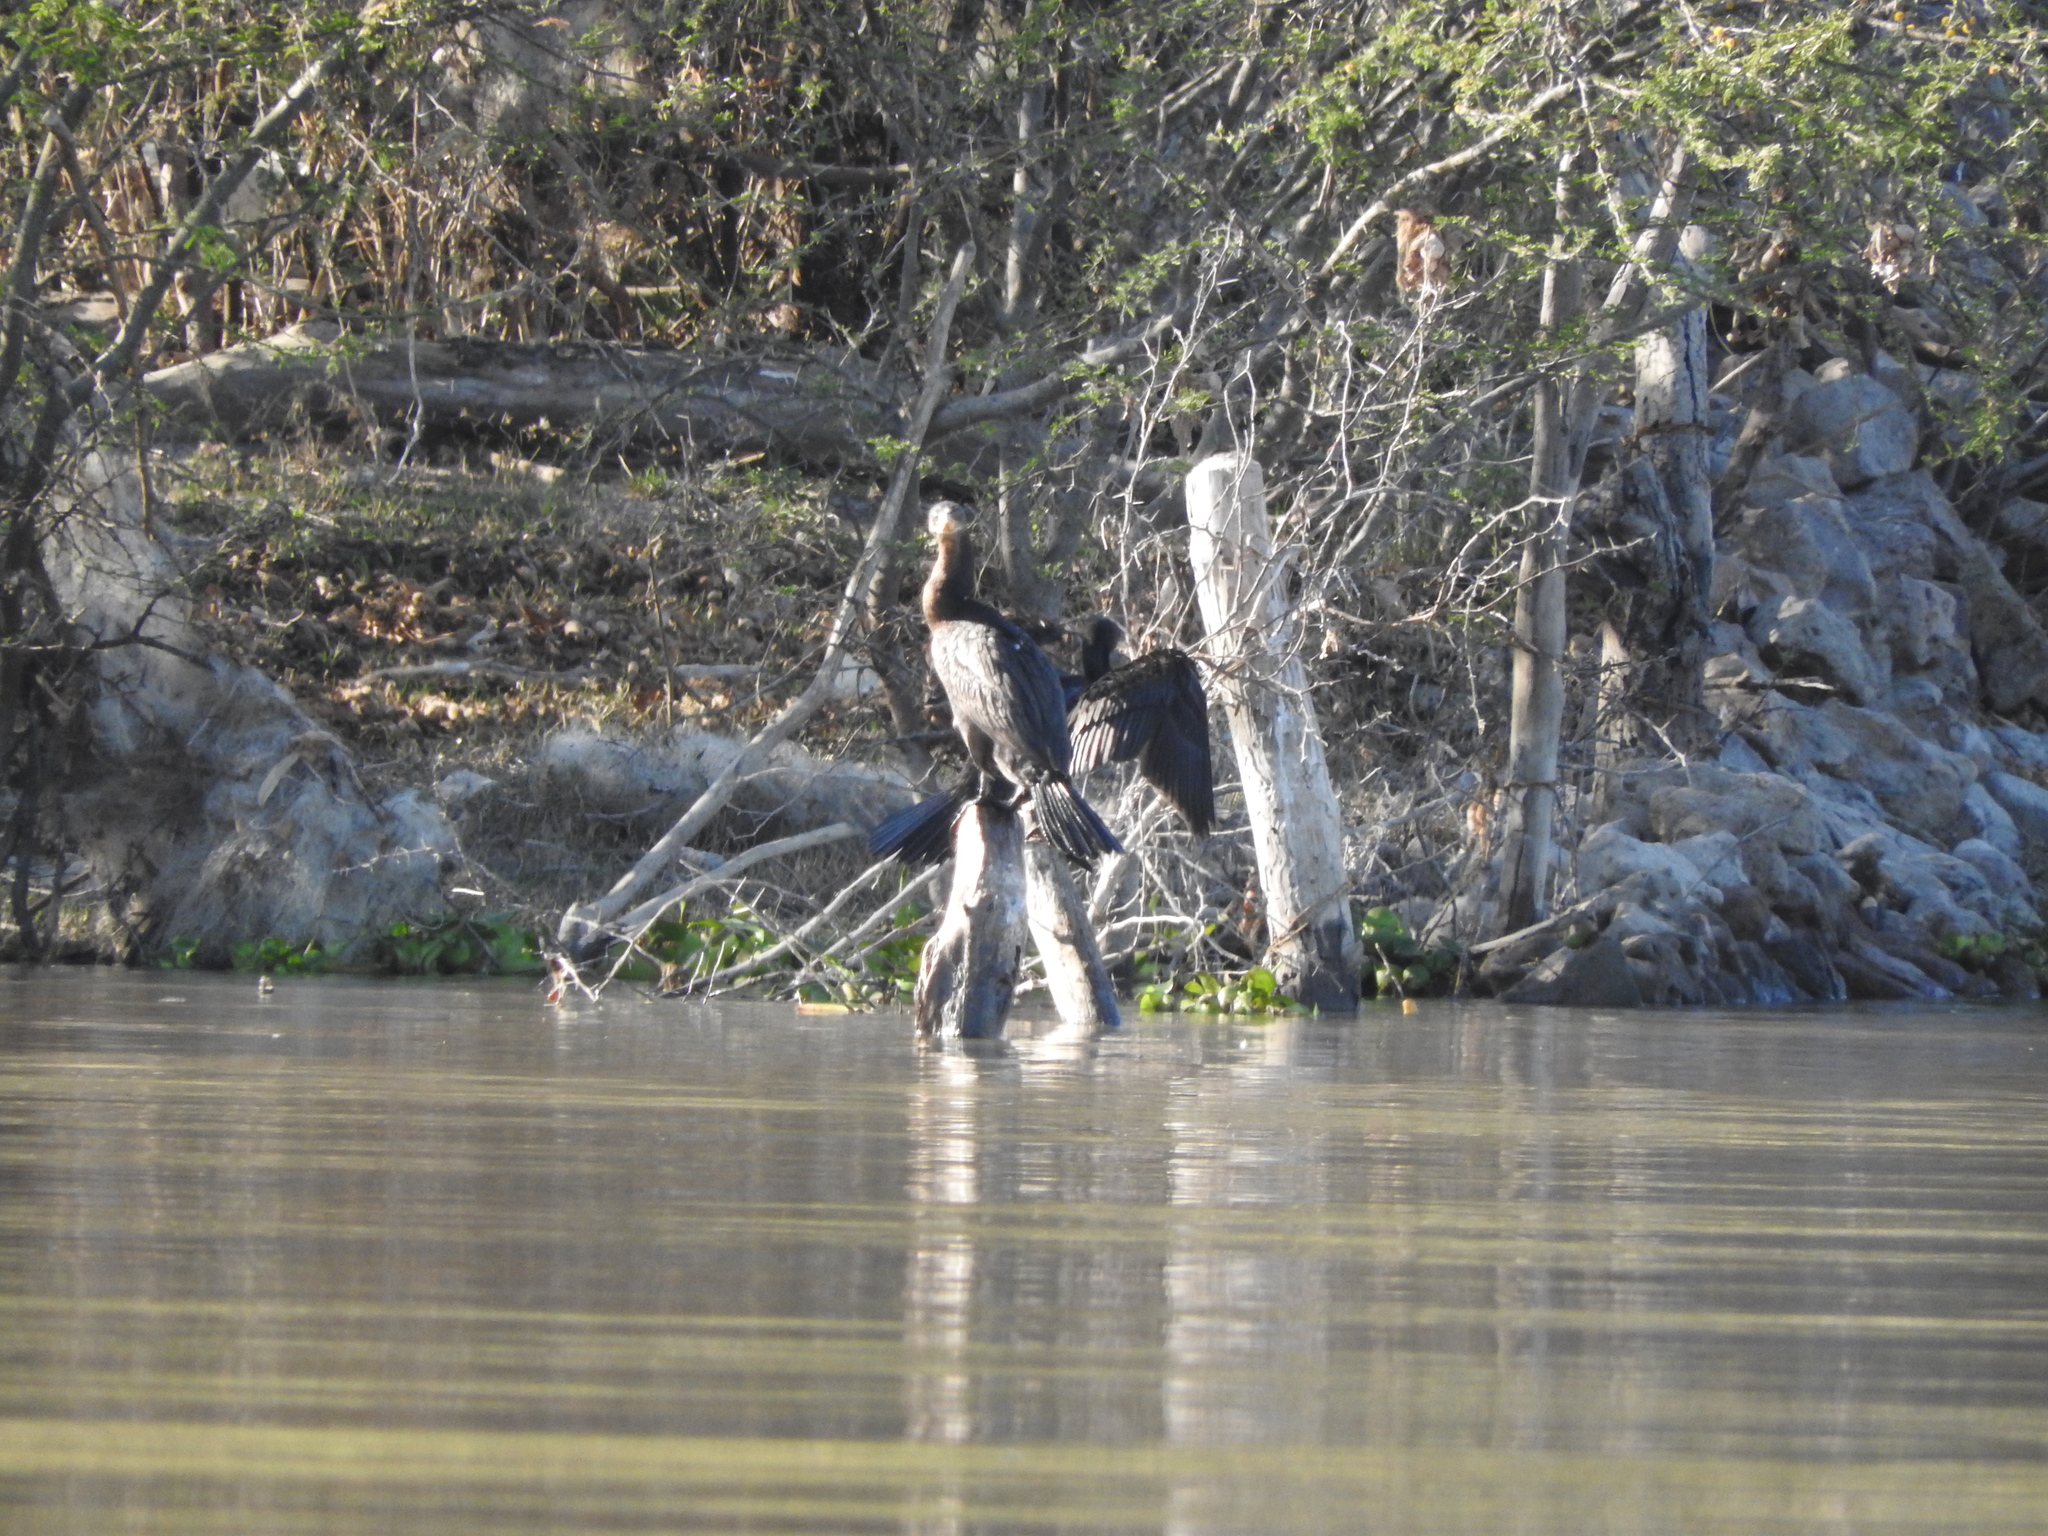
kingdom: Animalia
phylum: Chordata
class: Aves
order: Suliformes
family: Phalacrocoracidae
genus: Phalacrocorax
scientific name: Phalacrocorax brasilianus
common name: Neotropic cormorant
